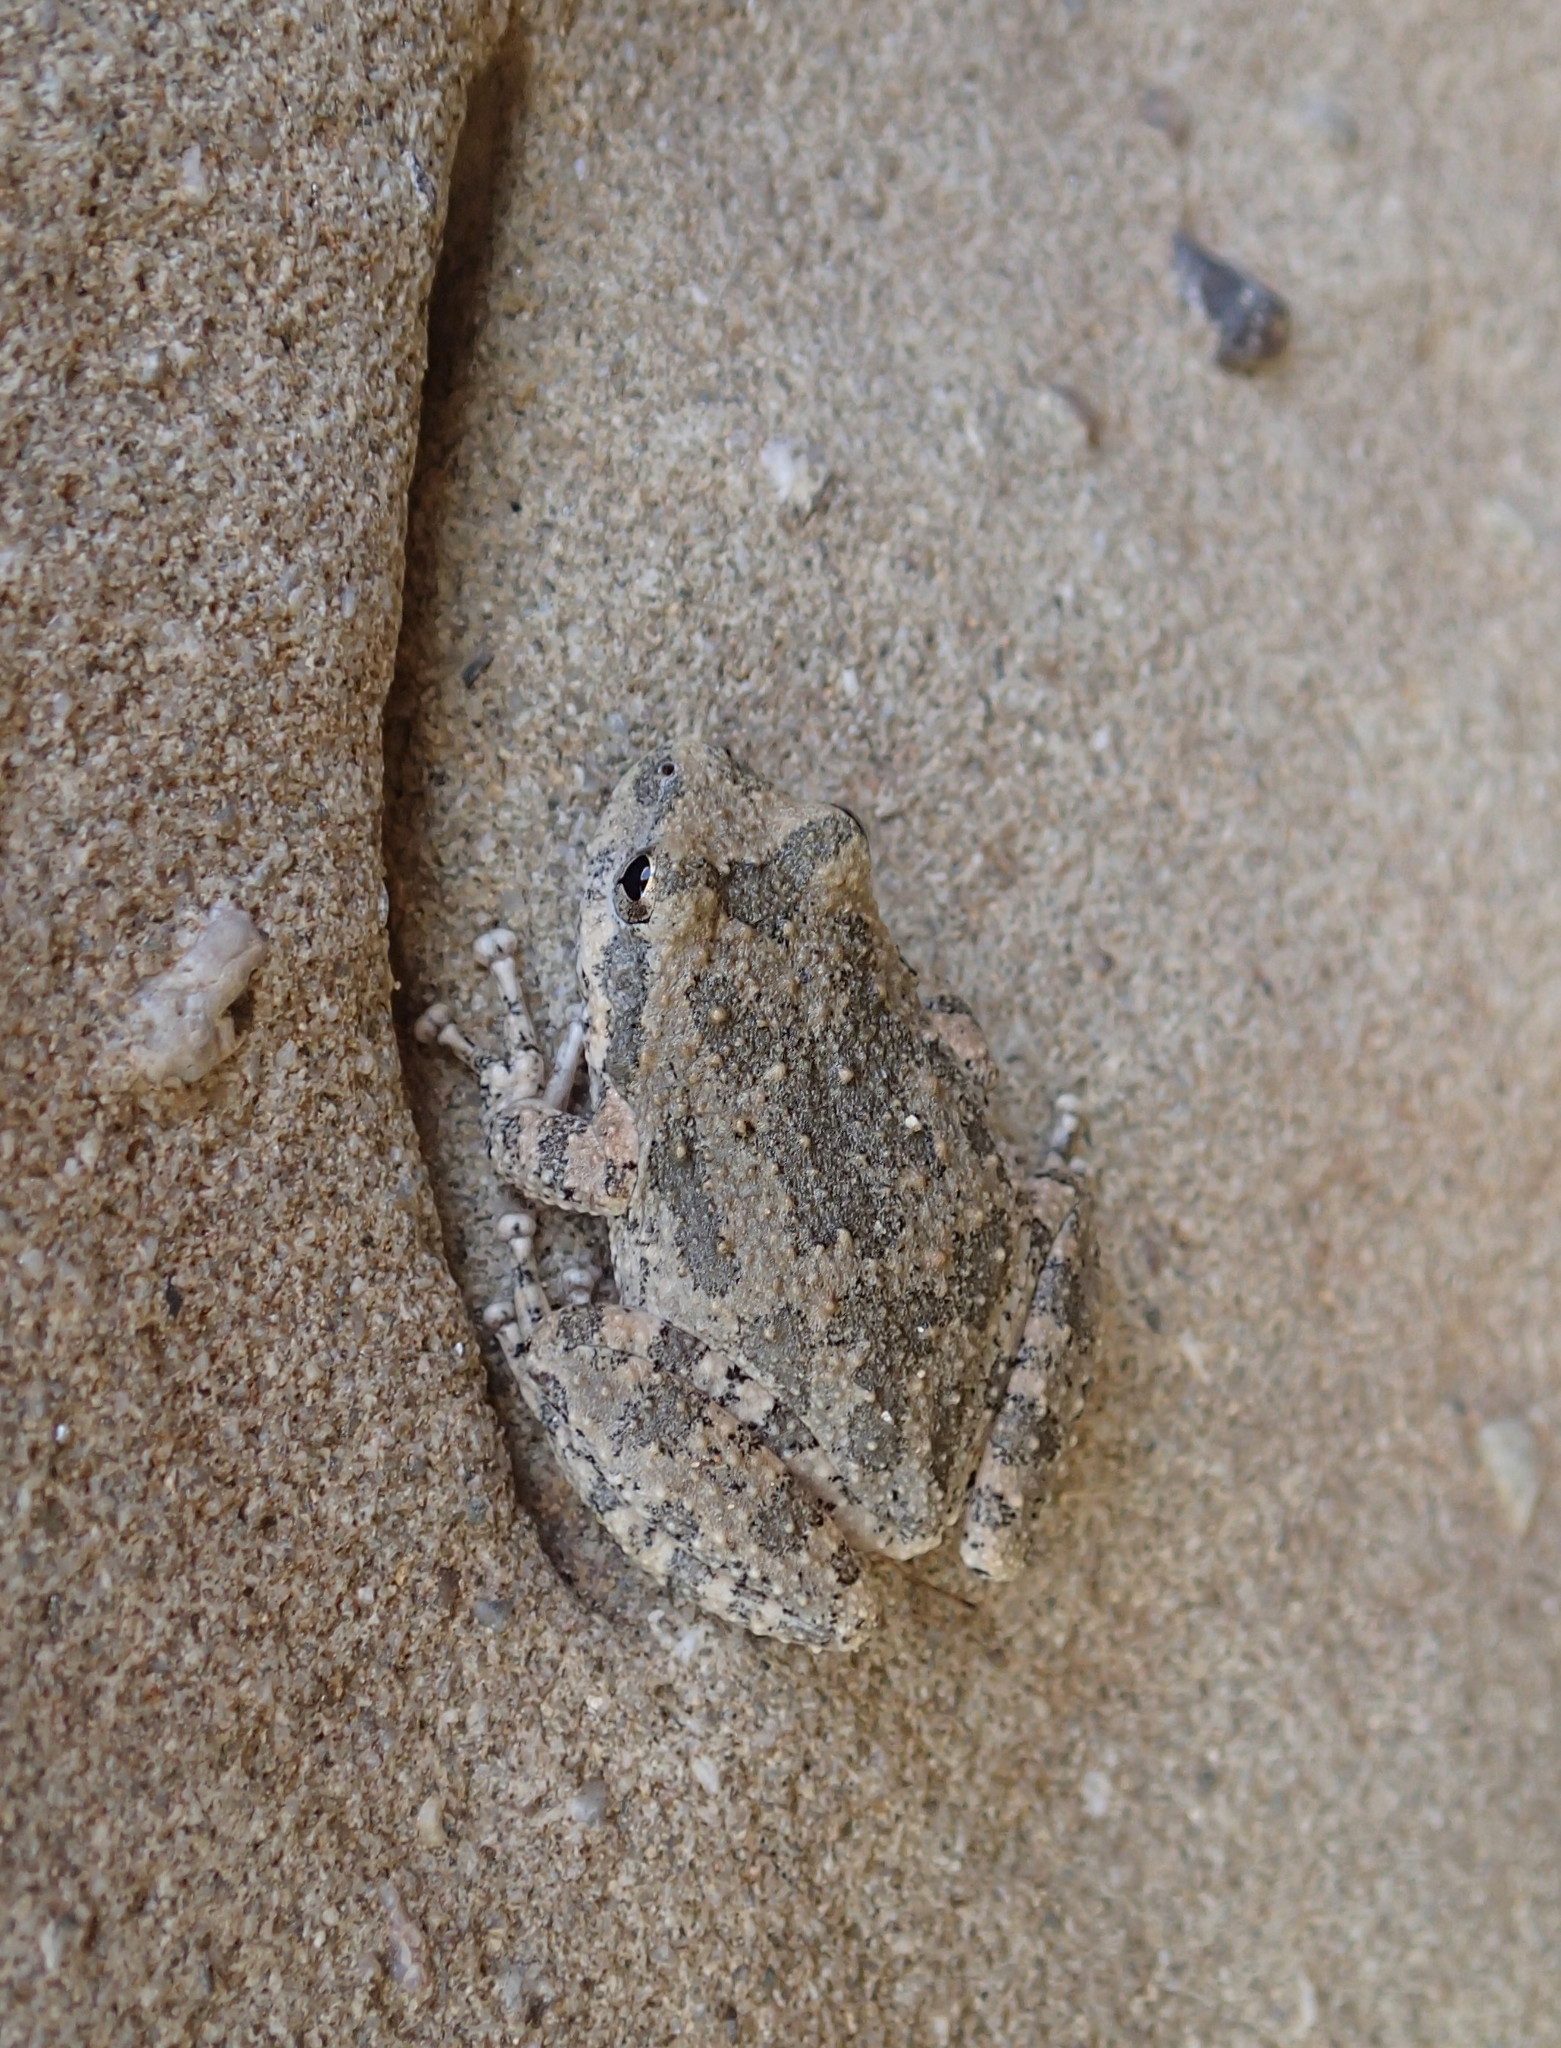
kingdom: Animalia
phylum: Chordata
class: Amphibia
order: Anura
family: Hylidae
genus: Pseudacris
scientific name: Pseudacris cadaverina
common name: California chorus frog
